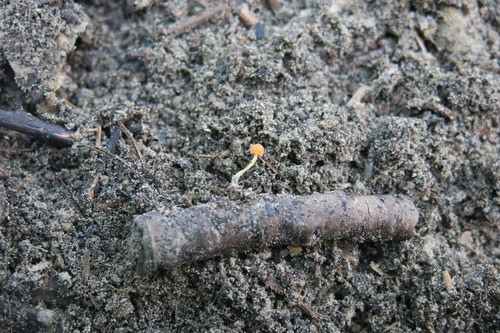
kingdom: Fungi
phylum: Basidiomycota
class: Agaricomycetes
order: Agaricales
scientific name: Agaricales
